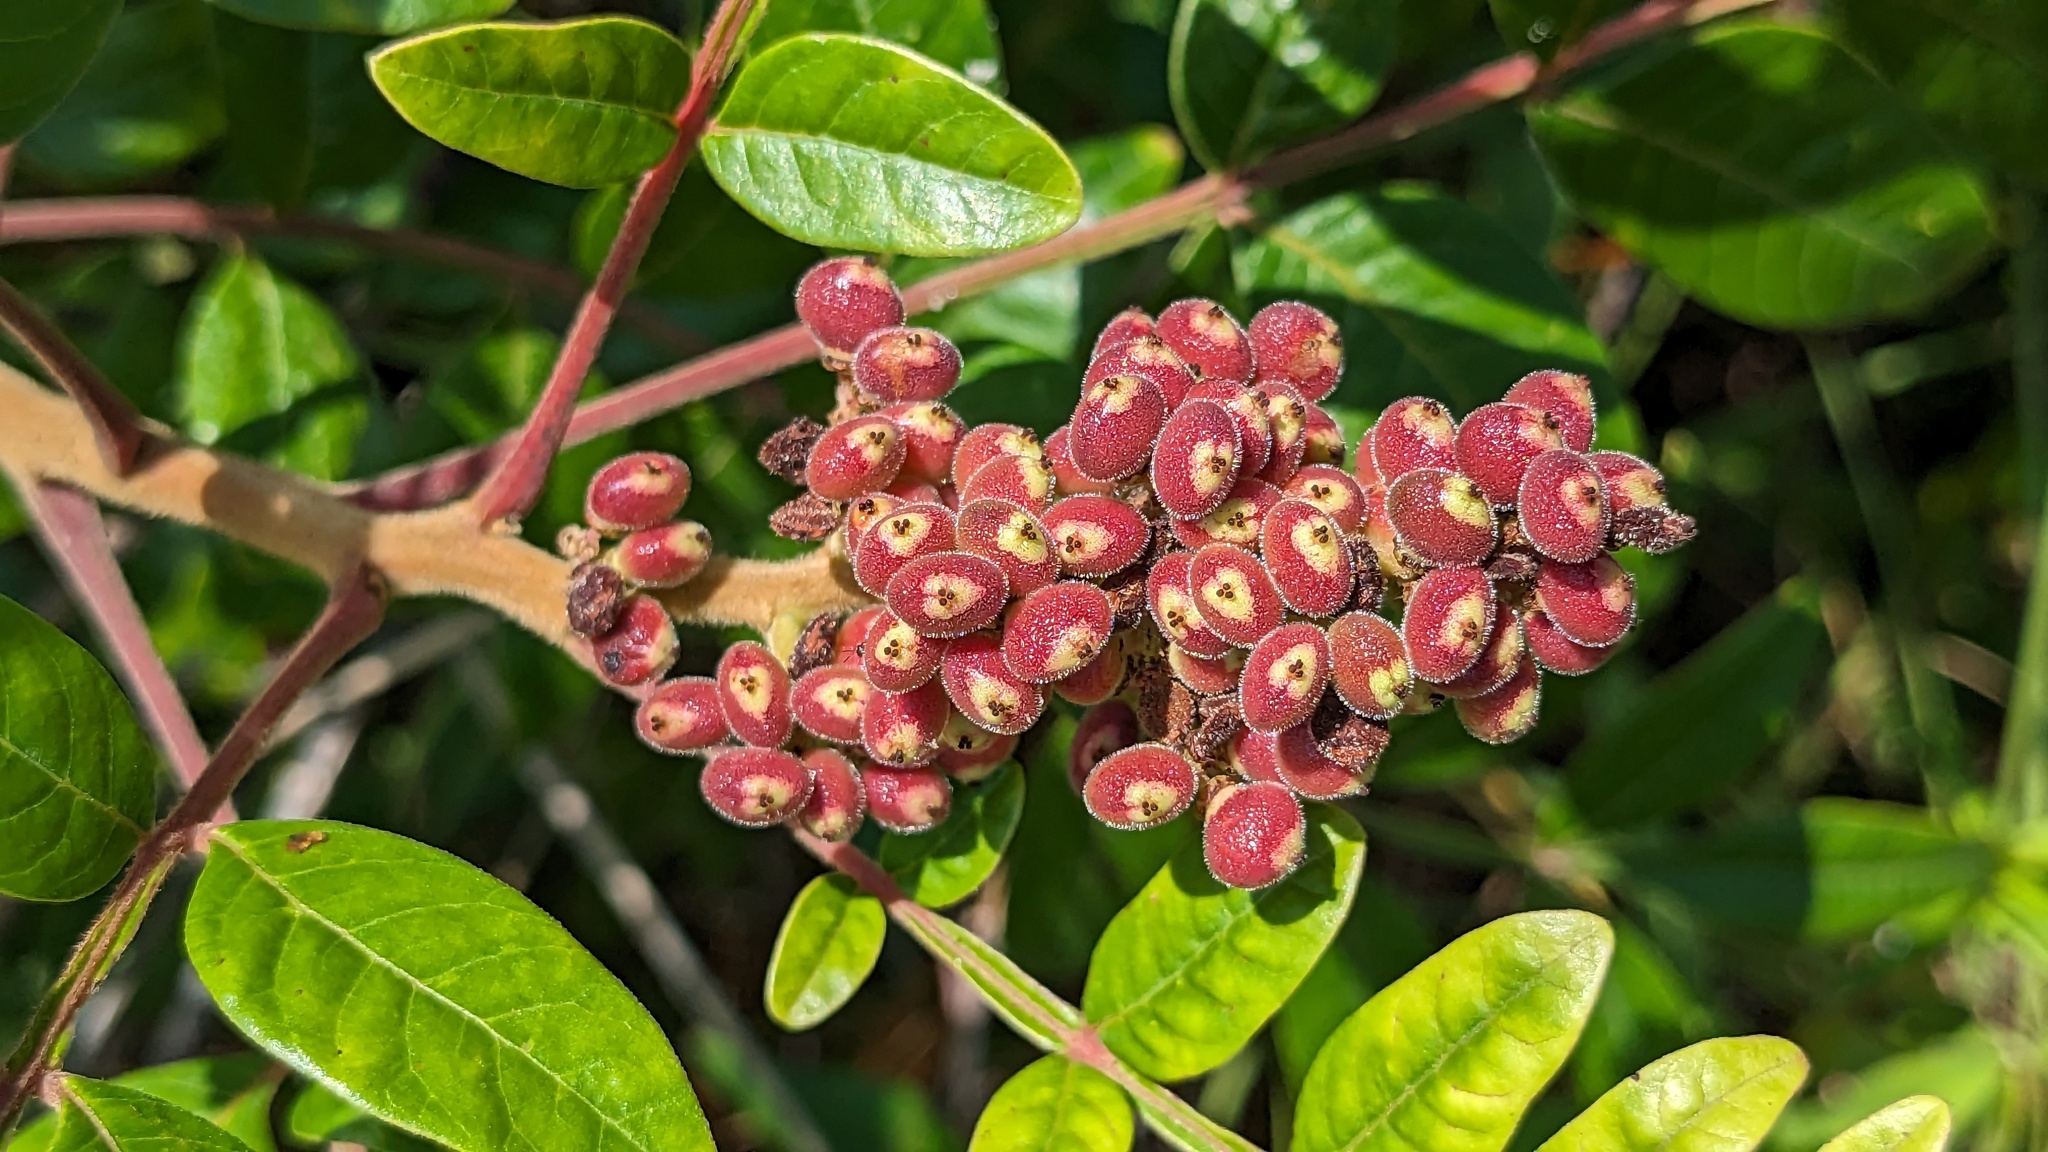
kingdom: Plantae
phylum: Tracheophyta
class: Magnoliopsida
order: Sapindales
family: Anacardiaceae
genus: Rhus
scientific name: Rhus copallina
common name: Shining sumac
